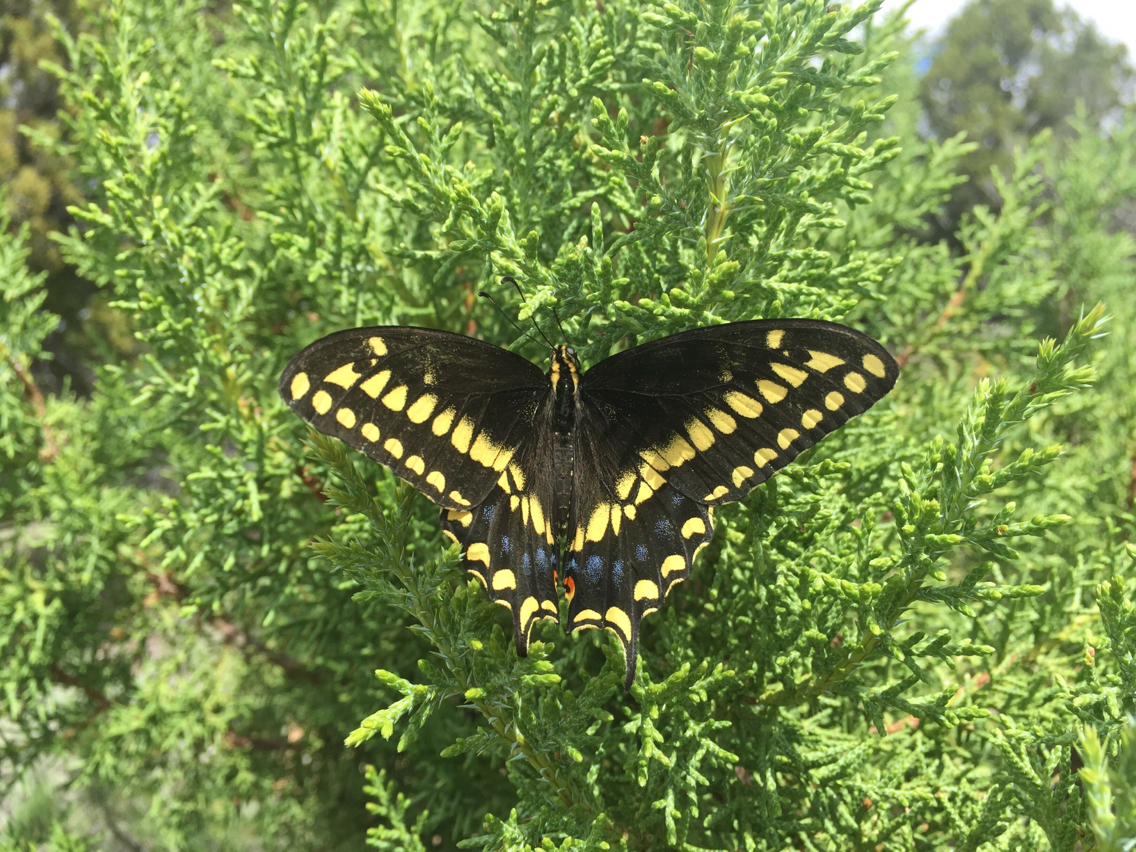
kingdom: Animalia
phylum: Arthropoda
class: Insecta
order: Lepidoptera
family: Papilionidae
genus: Papilio
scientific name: Papilio
